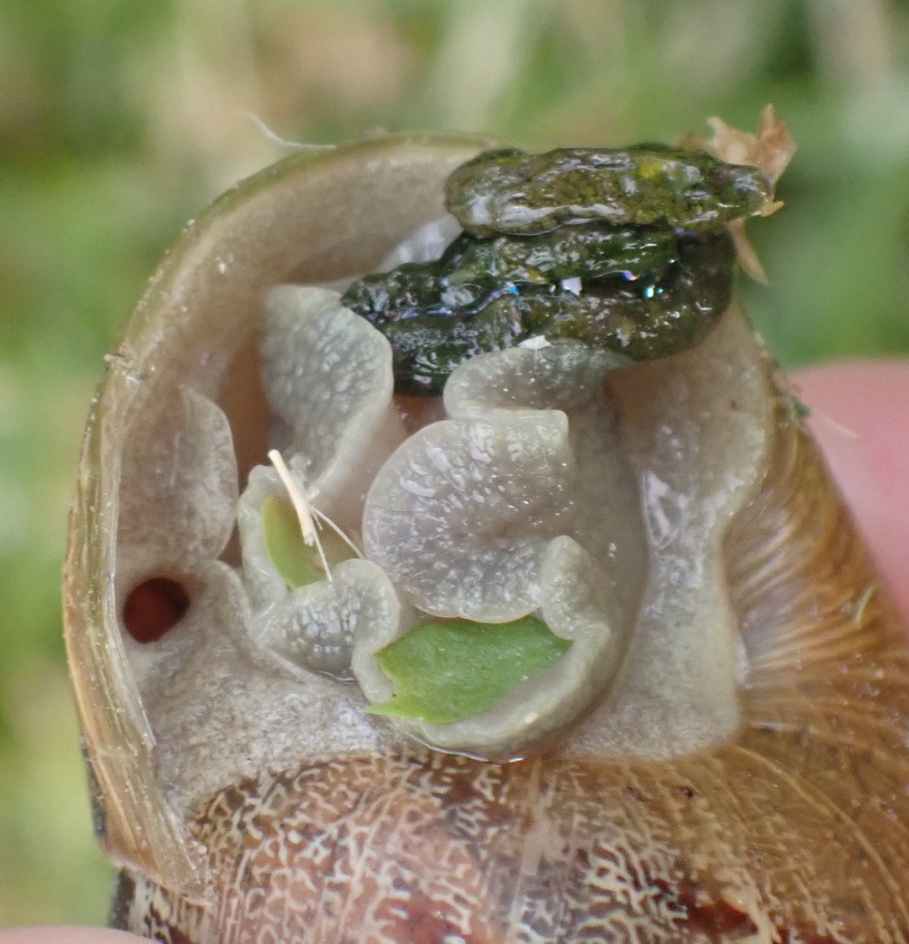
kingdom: Animalia
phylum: Mollusca
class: Gastropoda
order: Stylommatophora
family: Helicidae
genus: Cornu
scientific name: Cornu aspersum
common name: Brown garden snail
